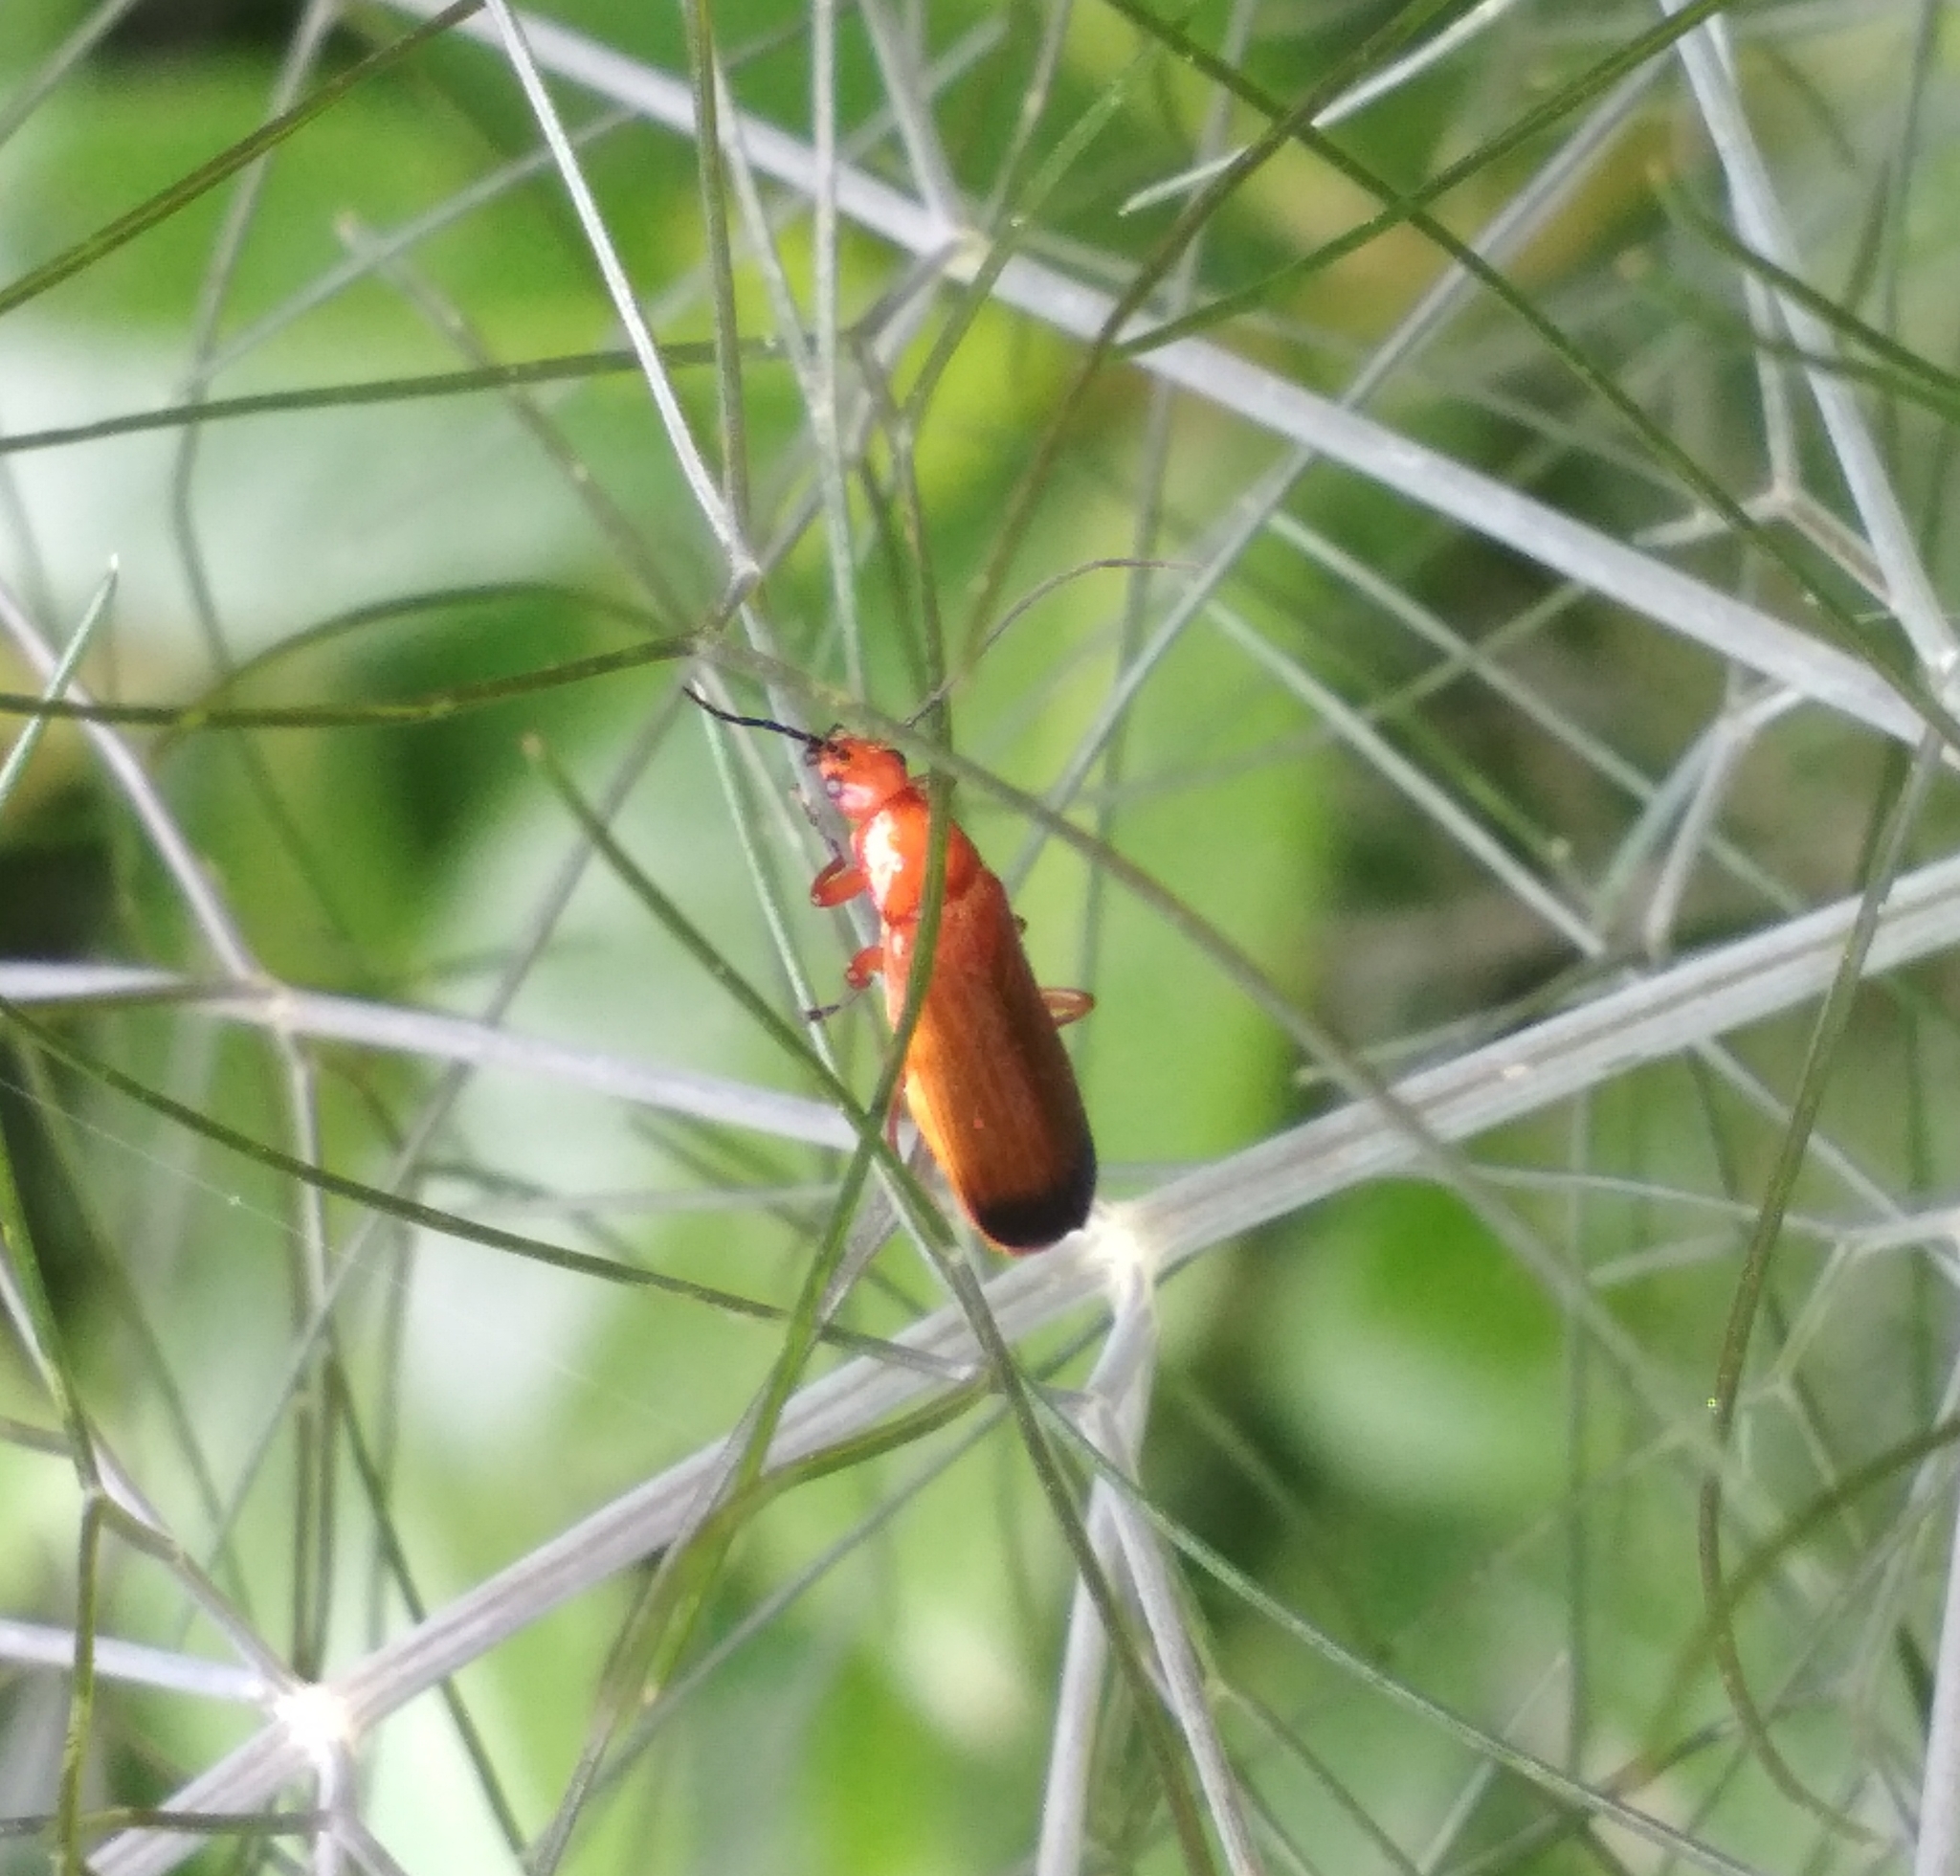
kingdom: Animalia
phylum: Arthropoda
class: Insecta
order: Coleoptera
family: Cantharidae
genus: Rhagonycha
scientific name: Rhagonycha fulva
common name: Common red soldier beetle
